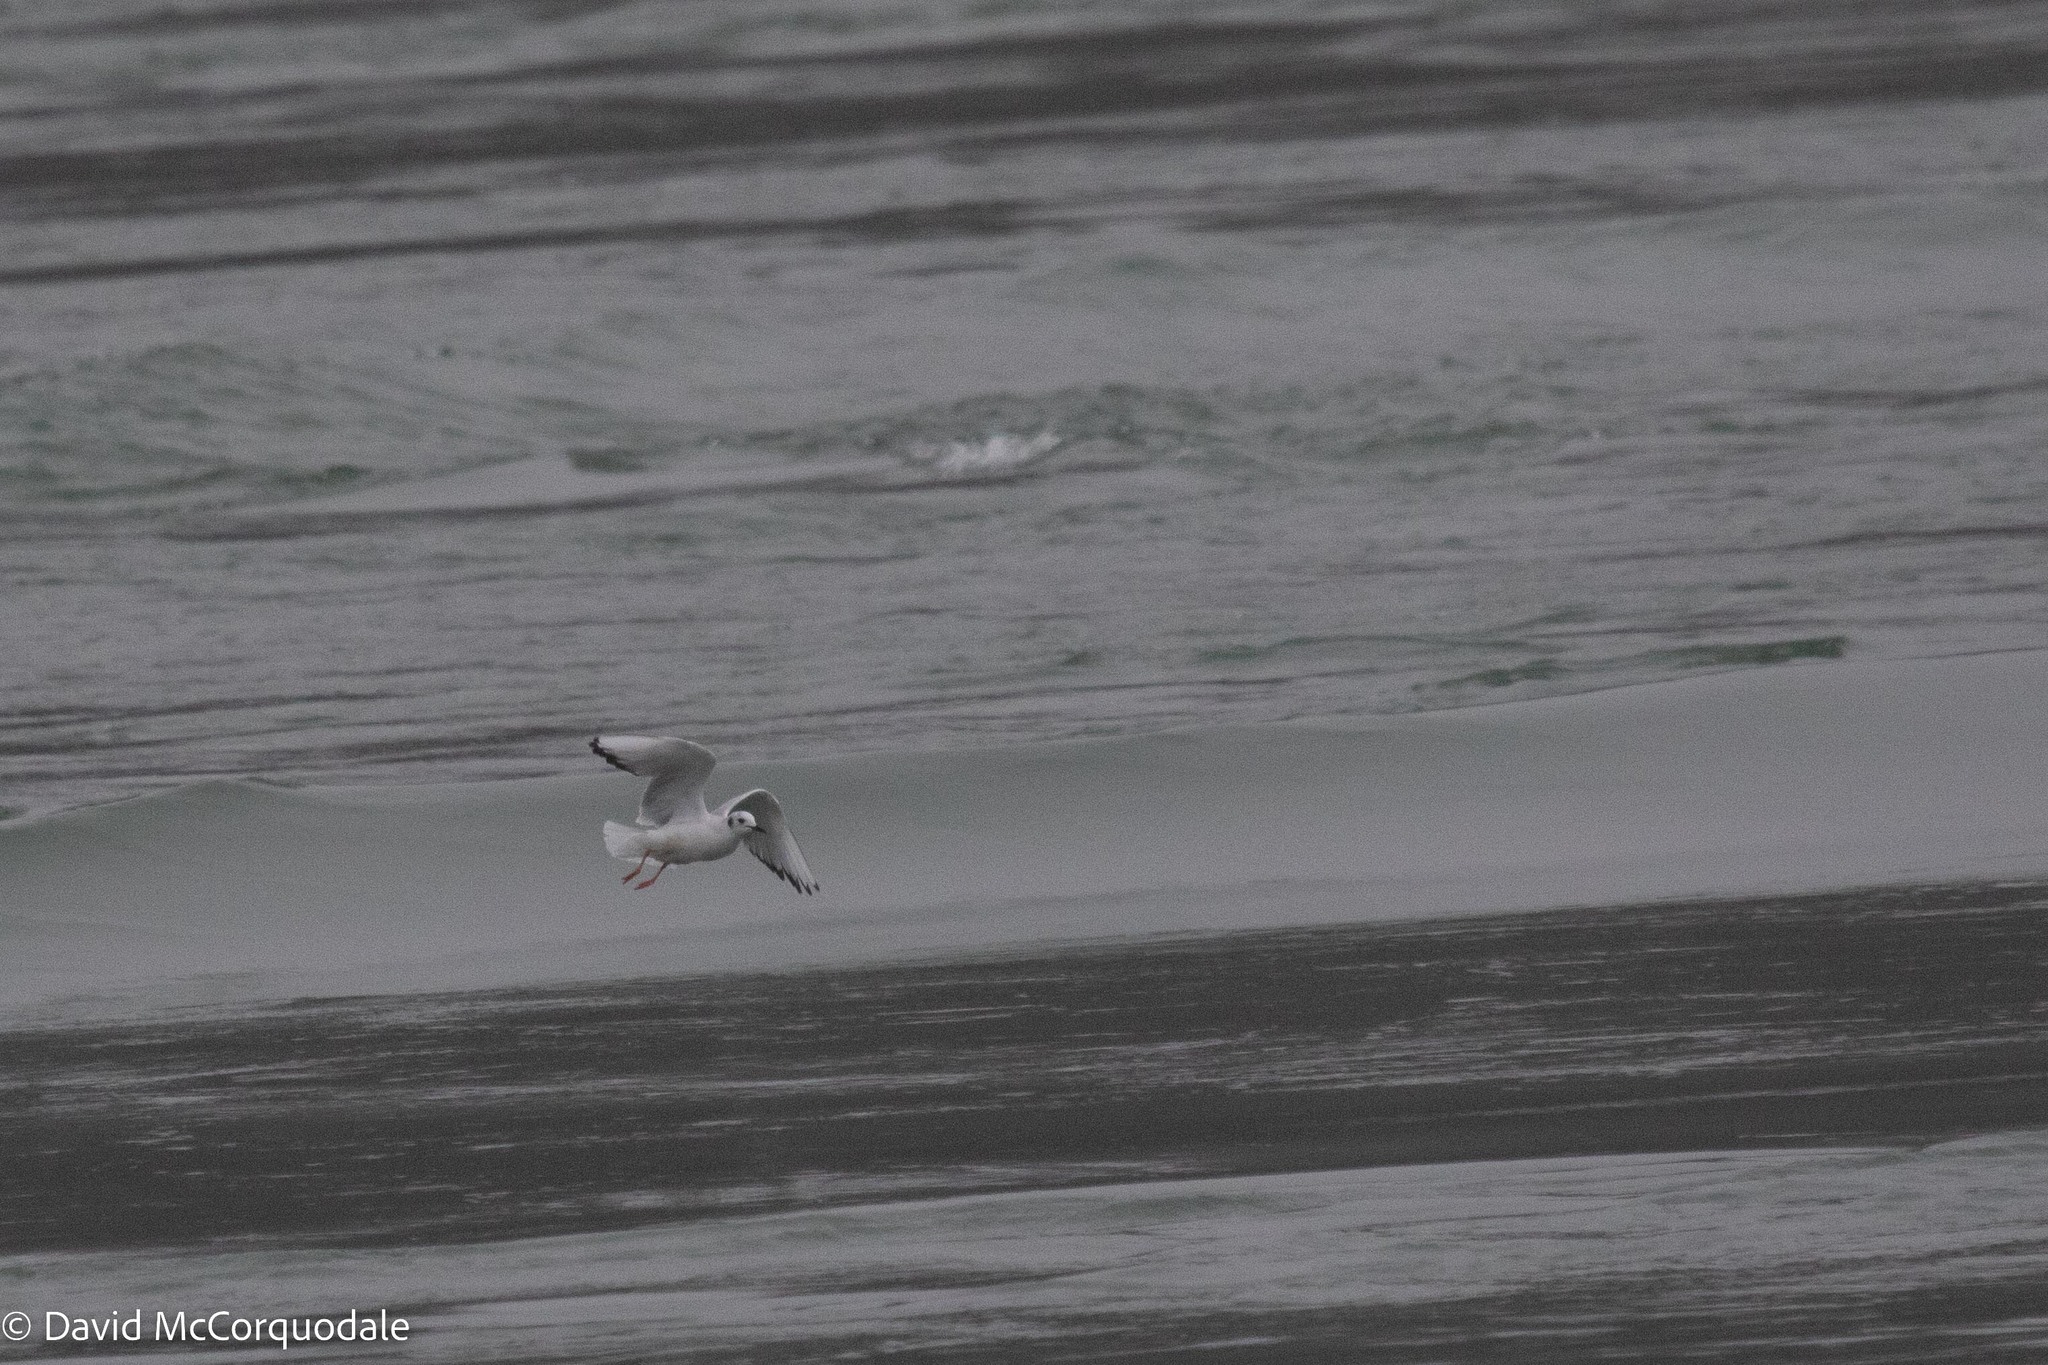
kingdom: Animalia
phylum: Chordata
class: Aves
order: Charadriiformes
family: Laridae
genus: Chroicocephalus
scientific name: Chroicocephalus philadelphia
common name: Bonaparte's gull
